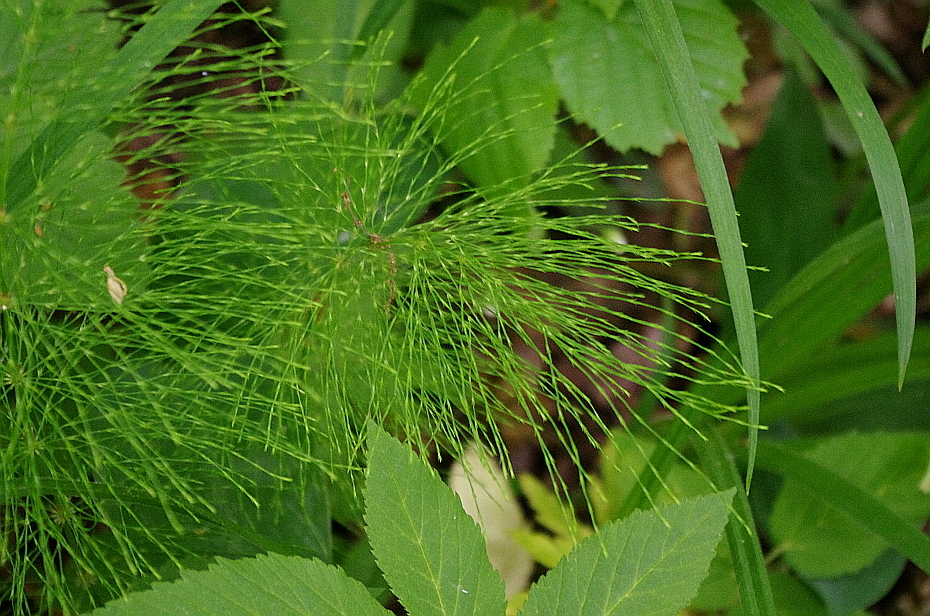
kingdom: Plantae
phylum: Tracheophyta
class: Polypodiopsida
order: Equisetales
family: Equisetaceae
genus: Equisetum
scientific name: Equisetum sylvaticum
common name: Wood horsetail
